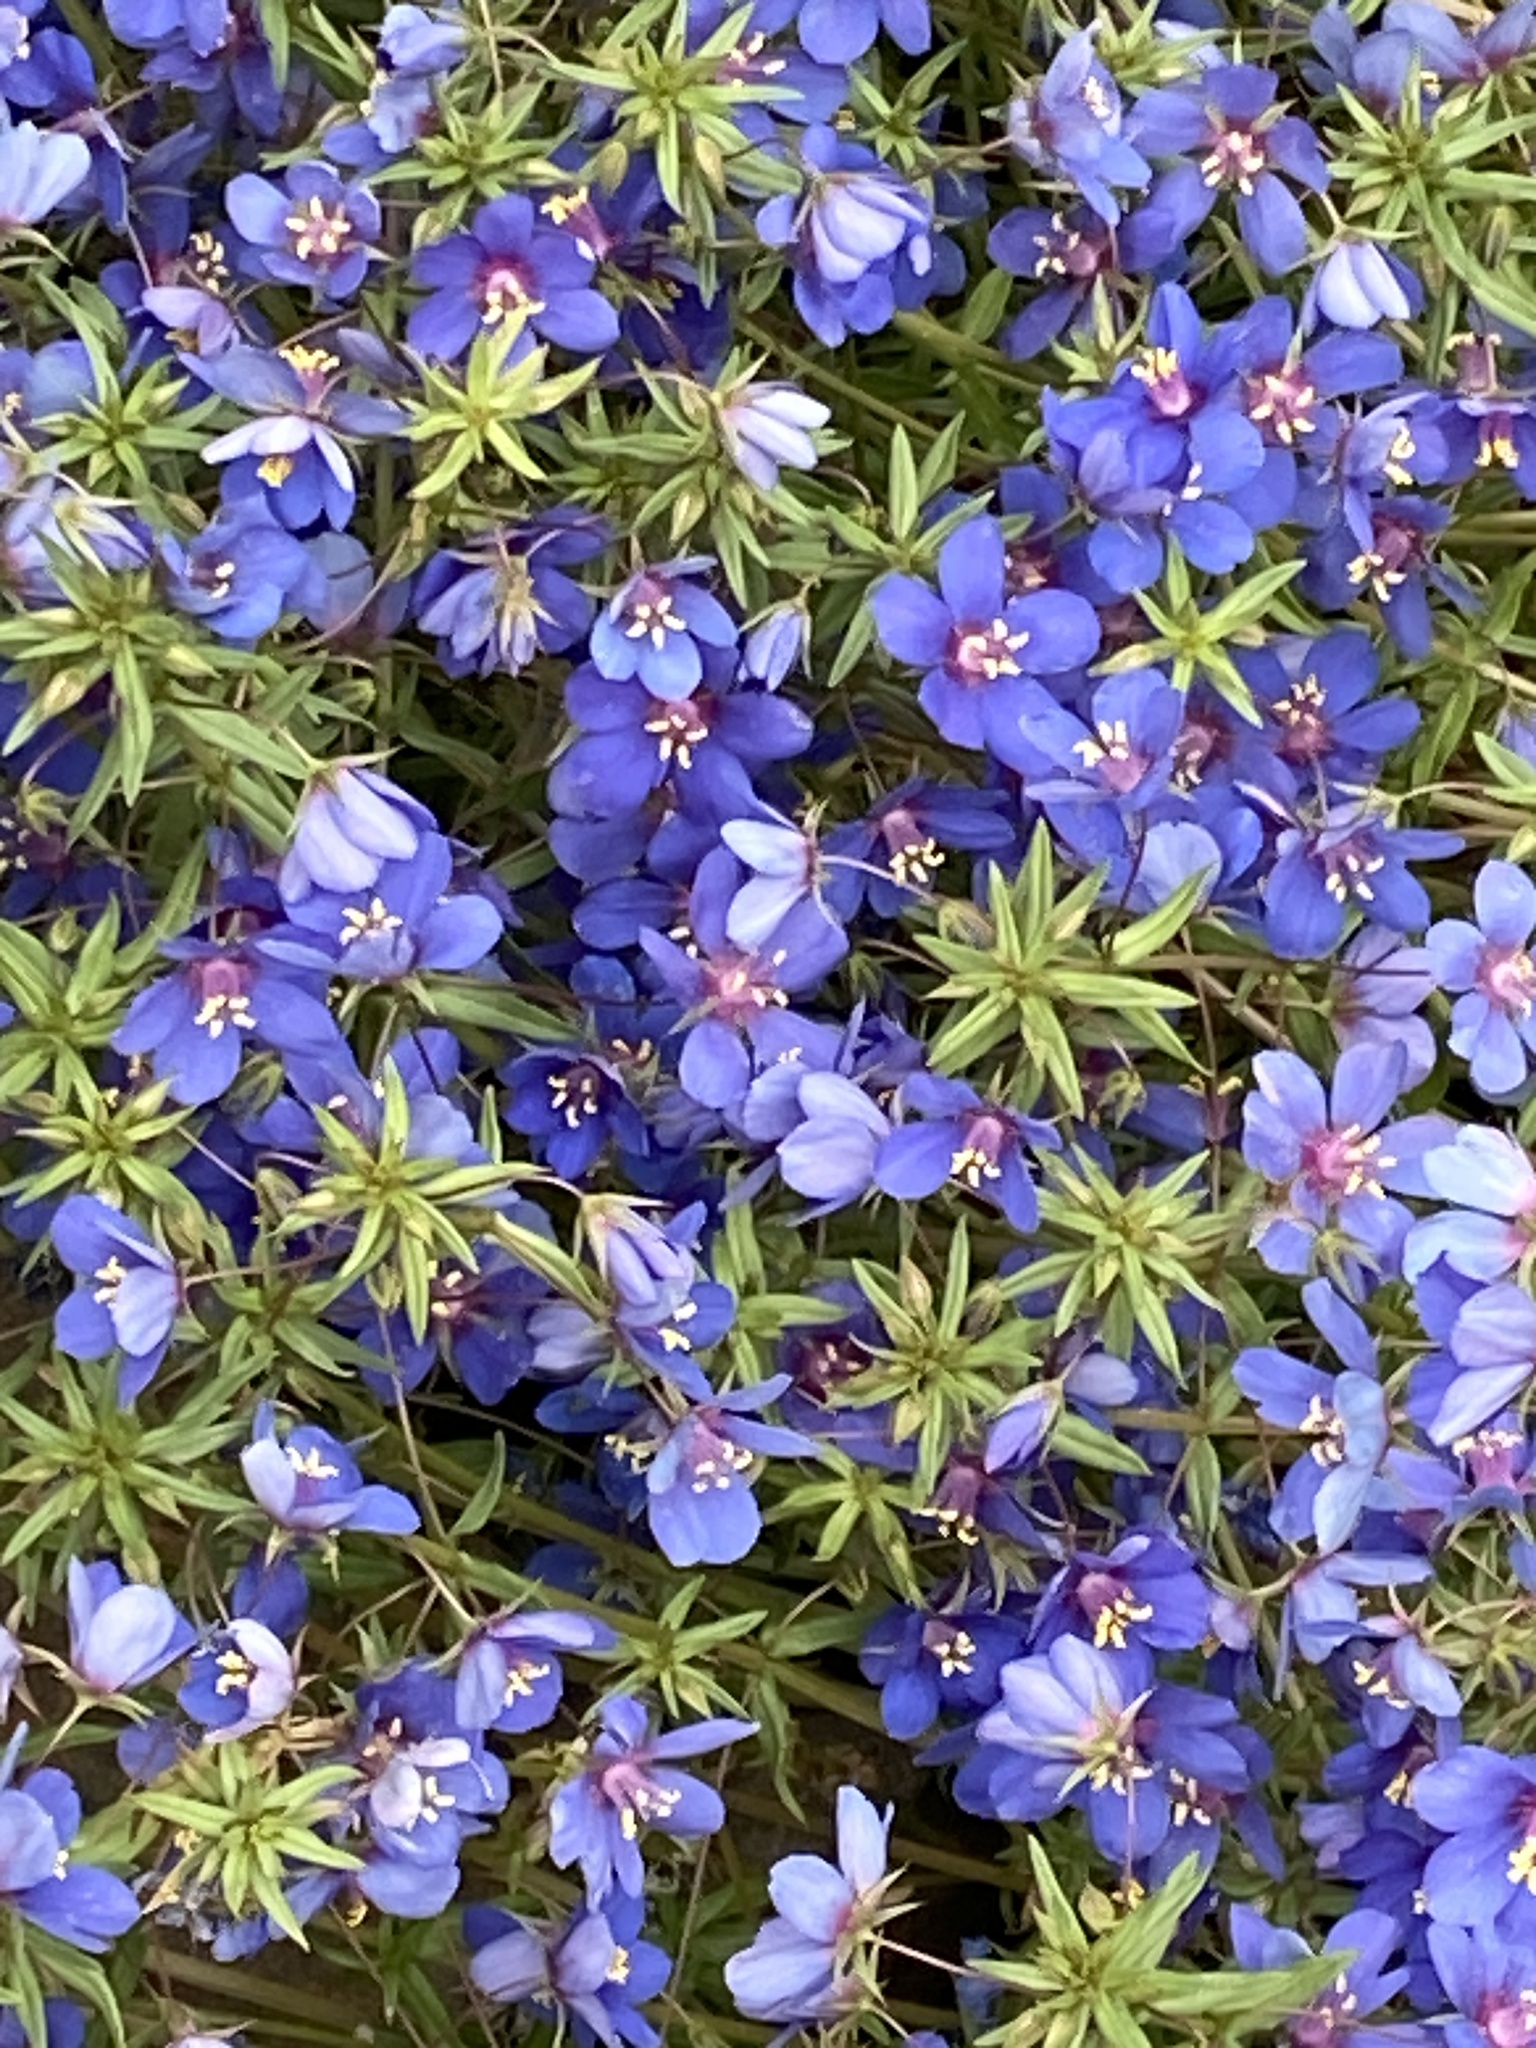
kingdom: Plantae
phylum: Tracheophyta
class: Magnoliopsida
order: Ericales
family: Primulaceae
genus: Lysimachia
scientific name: Lysimachia monelli
